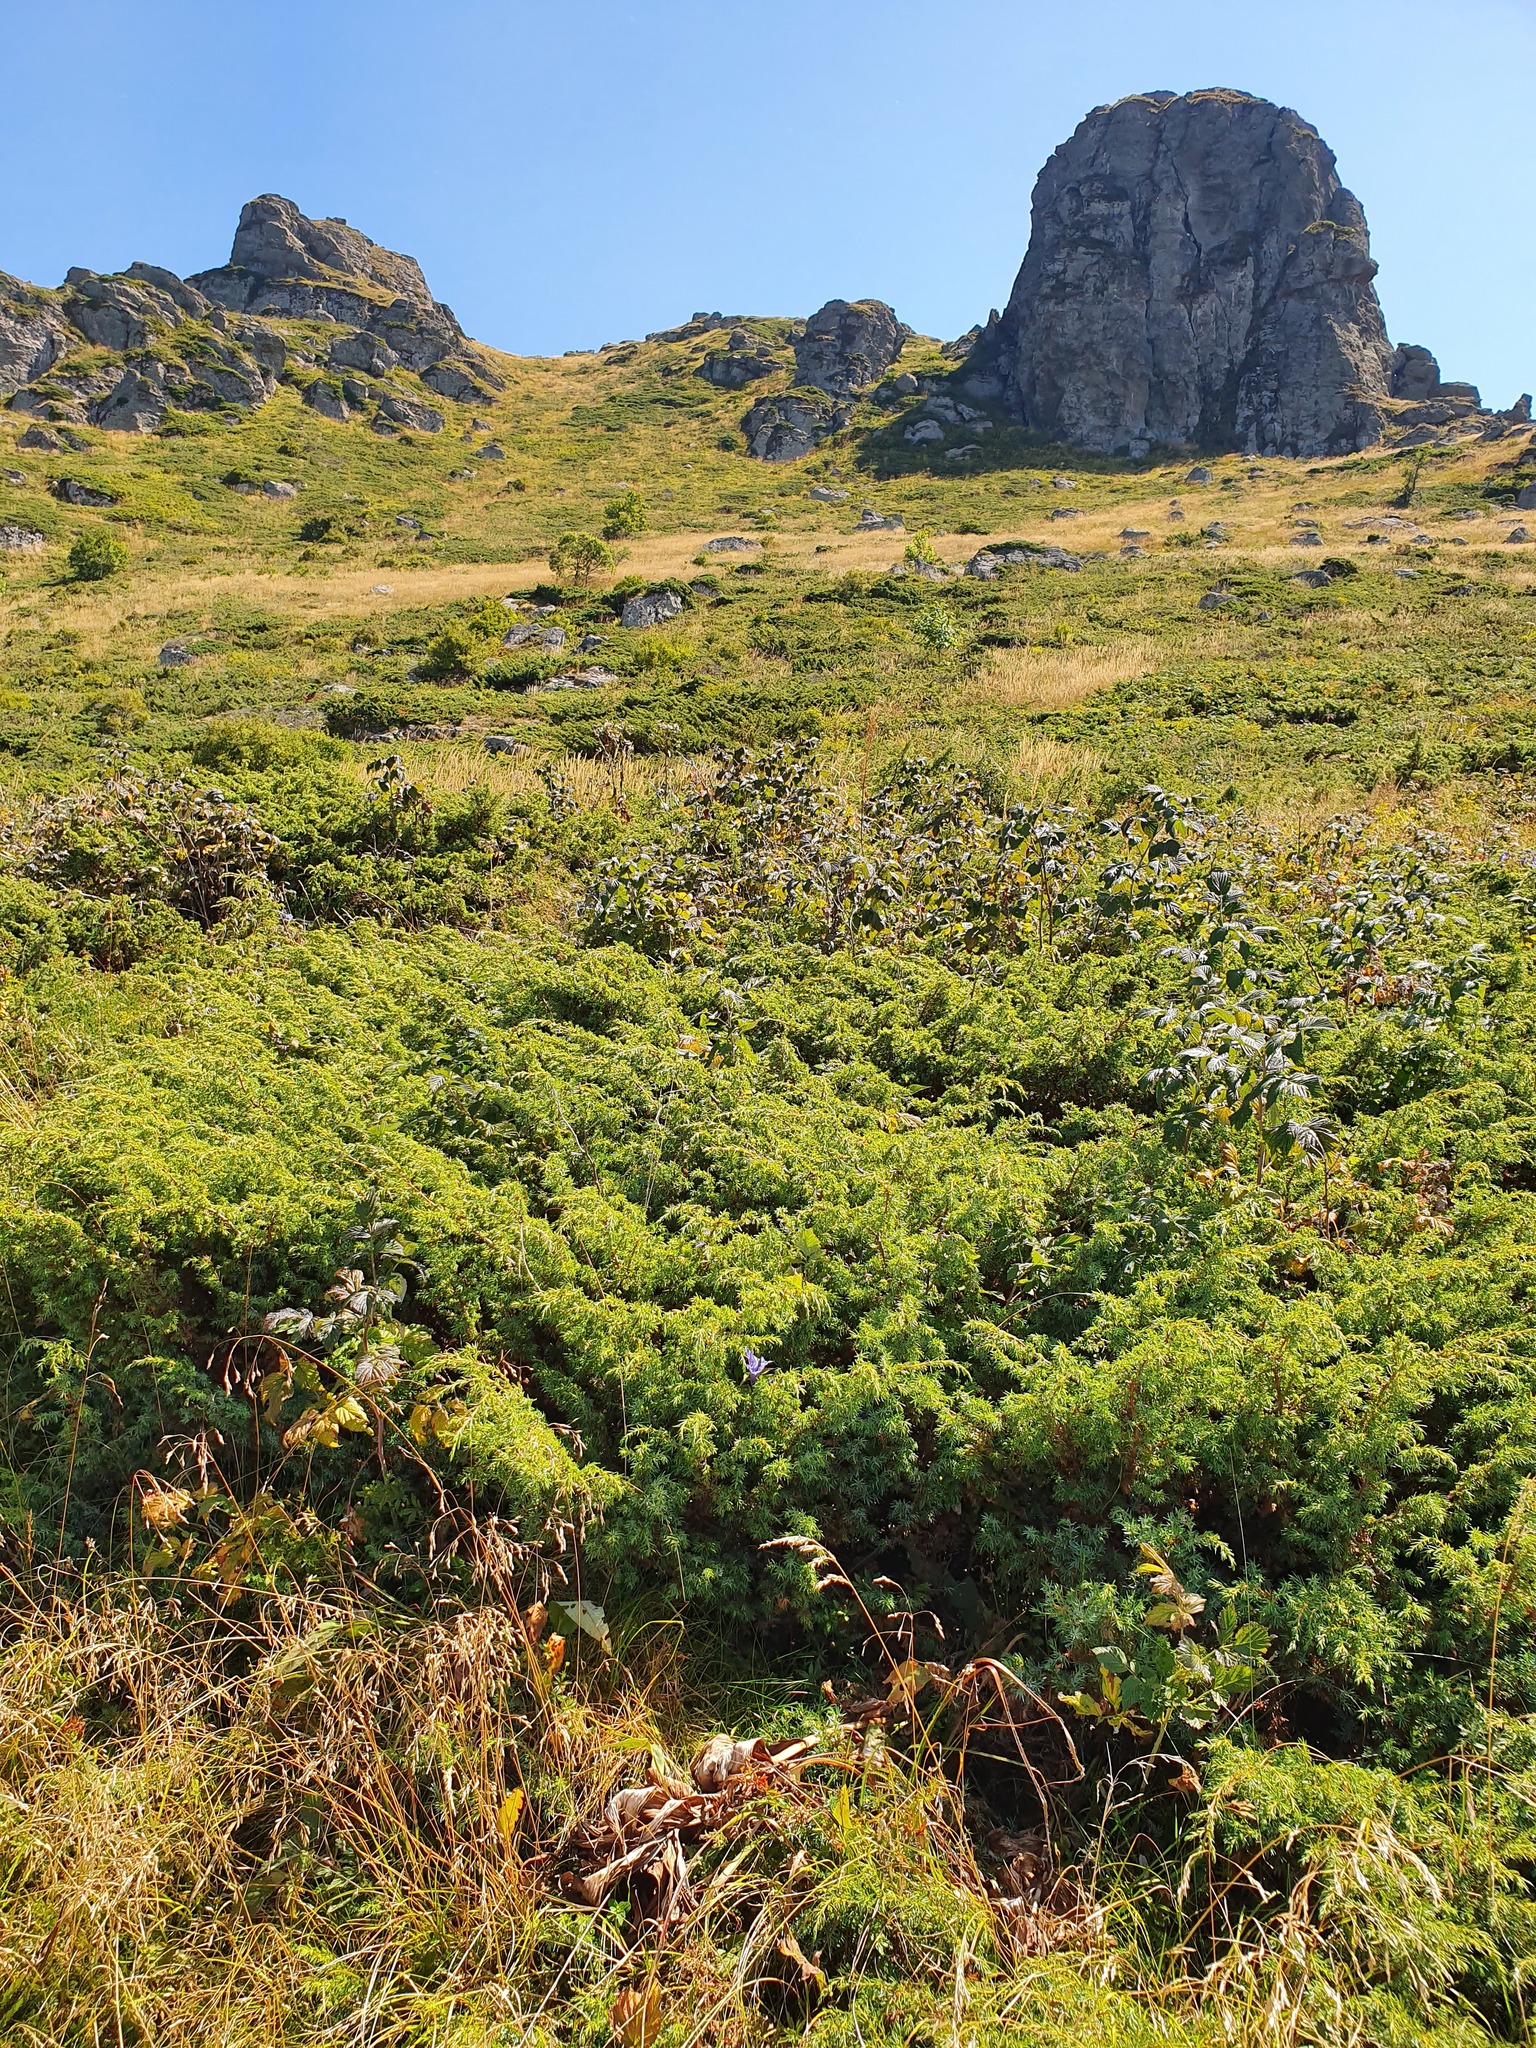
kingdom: Plantae
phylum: Tracheophyta
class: Pinopsida
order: Pinales
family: Cupressaceae
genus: Juniperus
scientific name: Juniperus communis
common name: Common juniper
